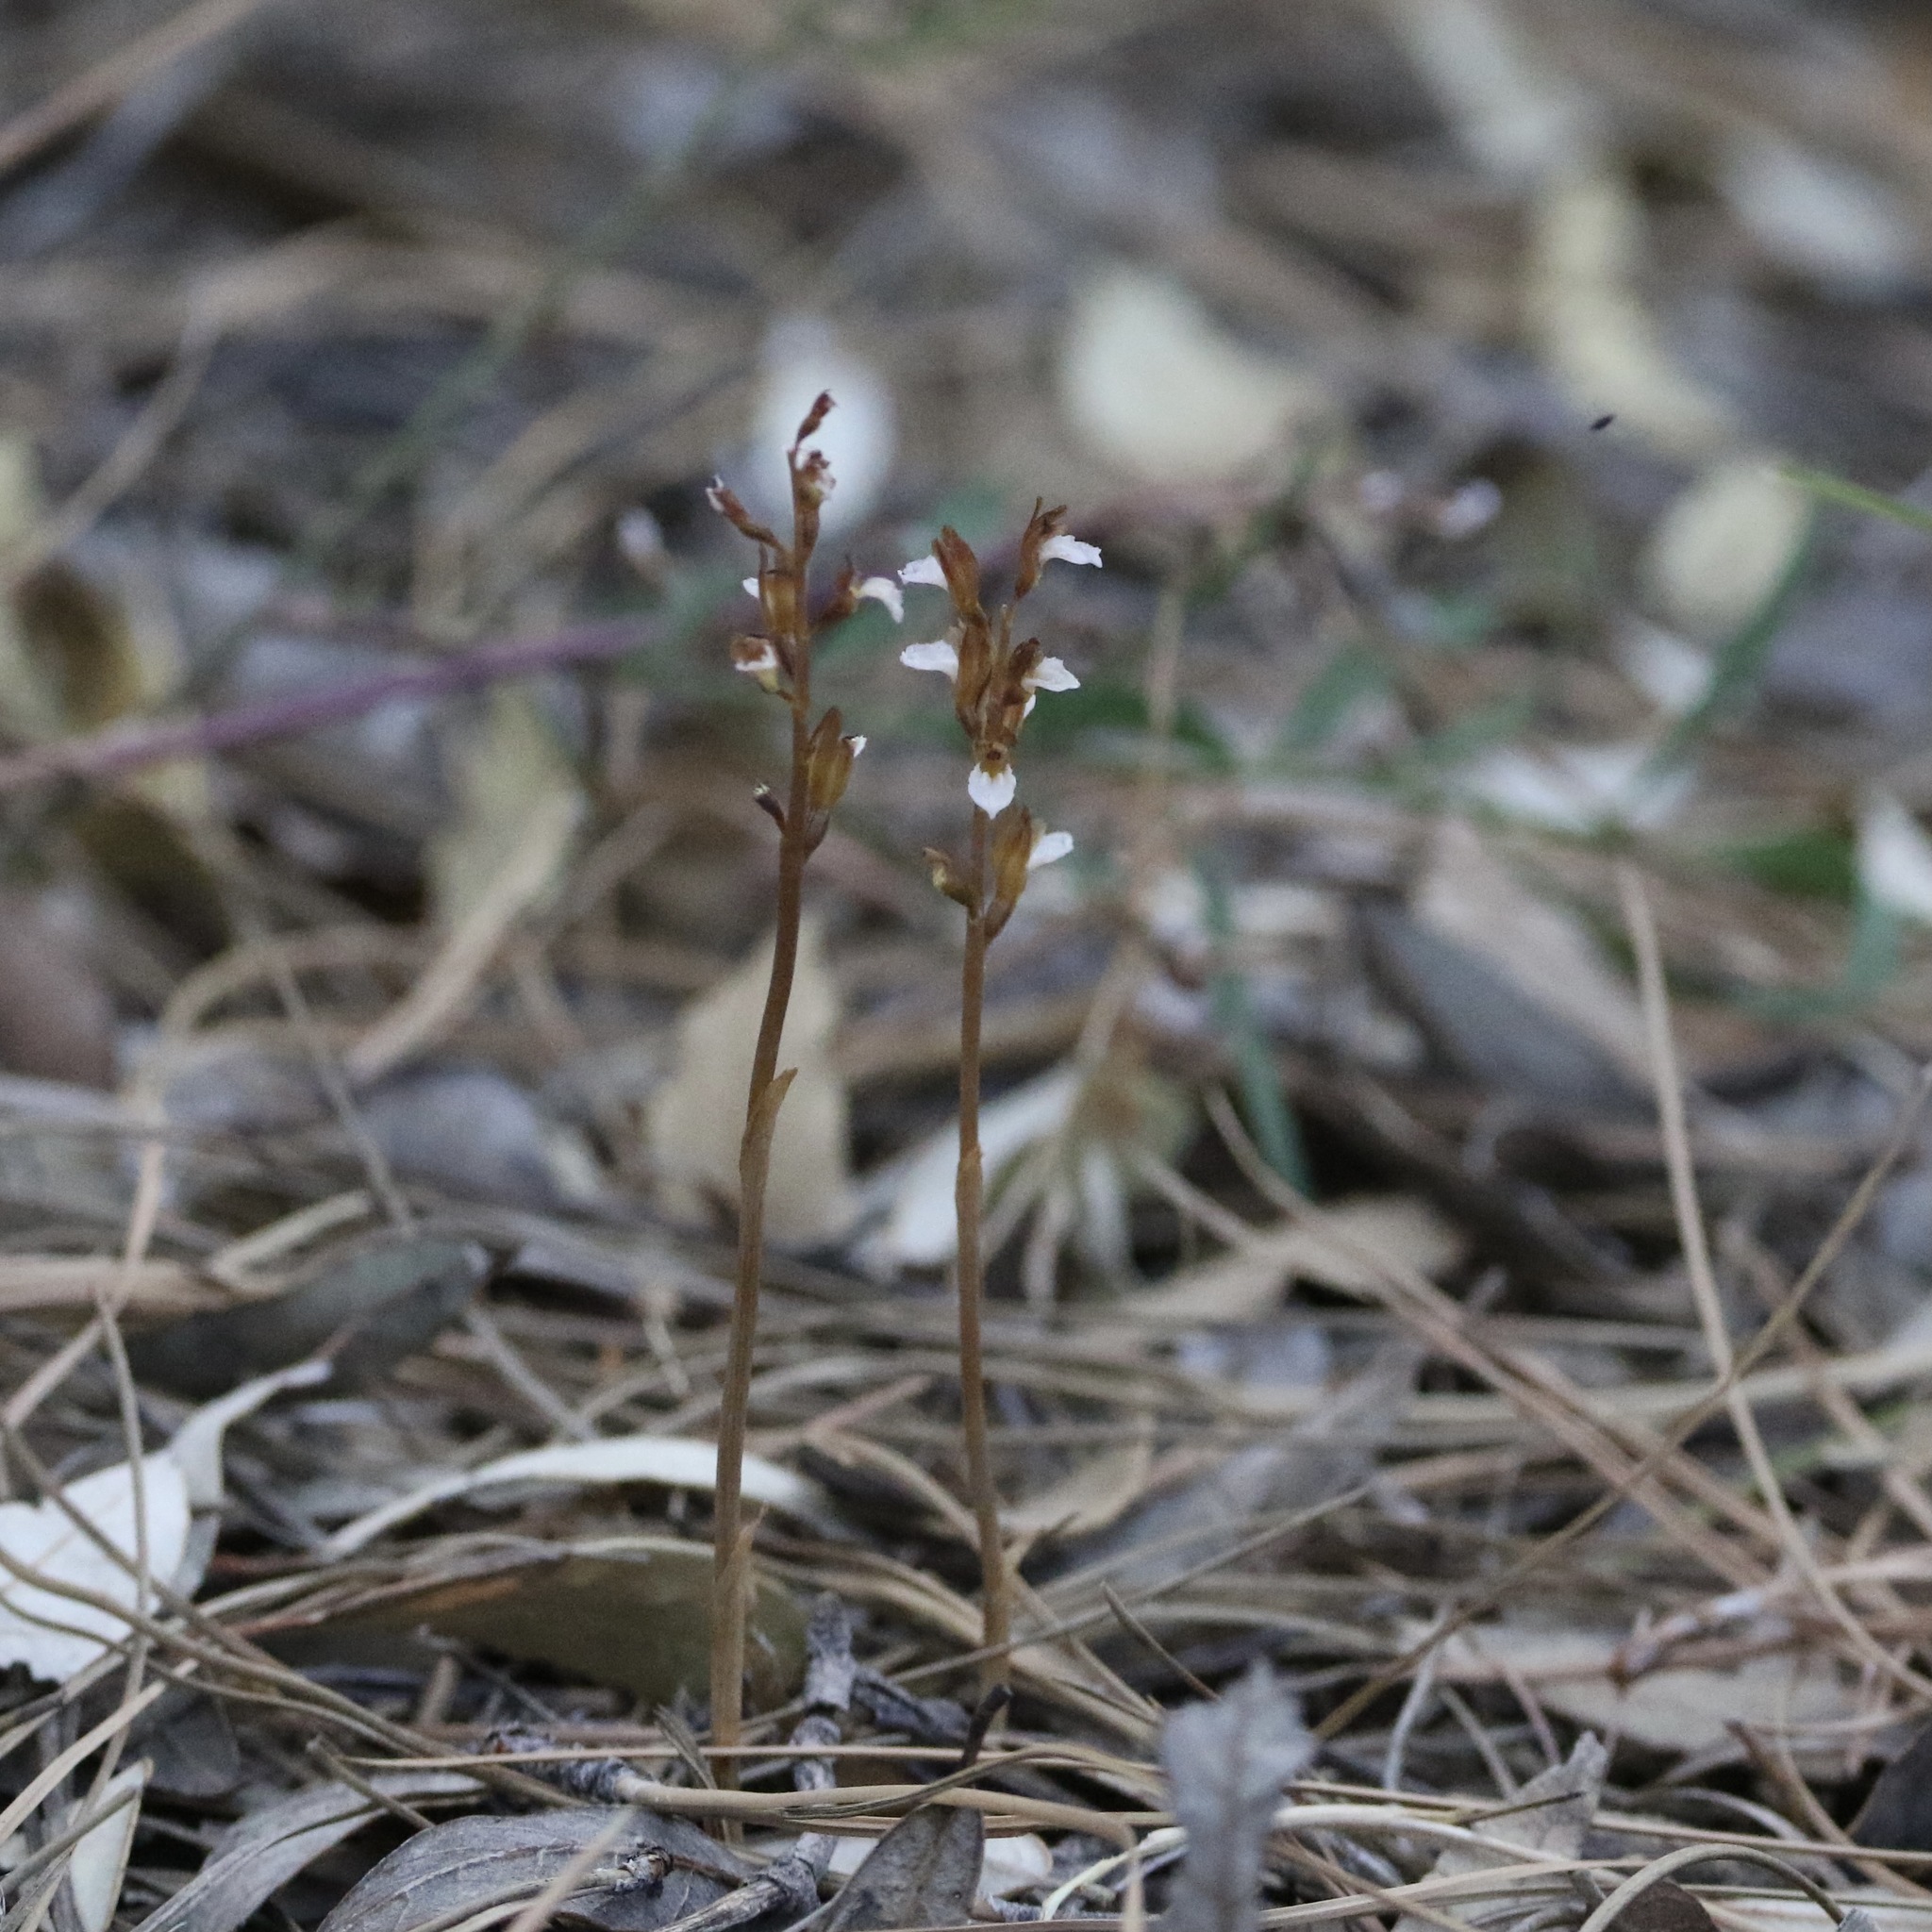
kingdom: Plantae
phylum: Tracheophyta
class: Liliopsida
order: Asparagales
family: Orchidaceae
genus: Corallorhiza
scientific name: Corallorhiza wisteriana
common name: Spring coralroot
